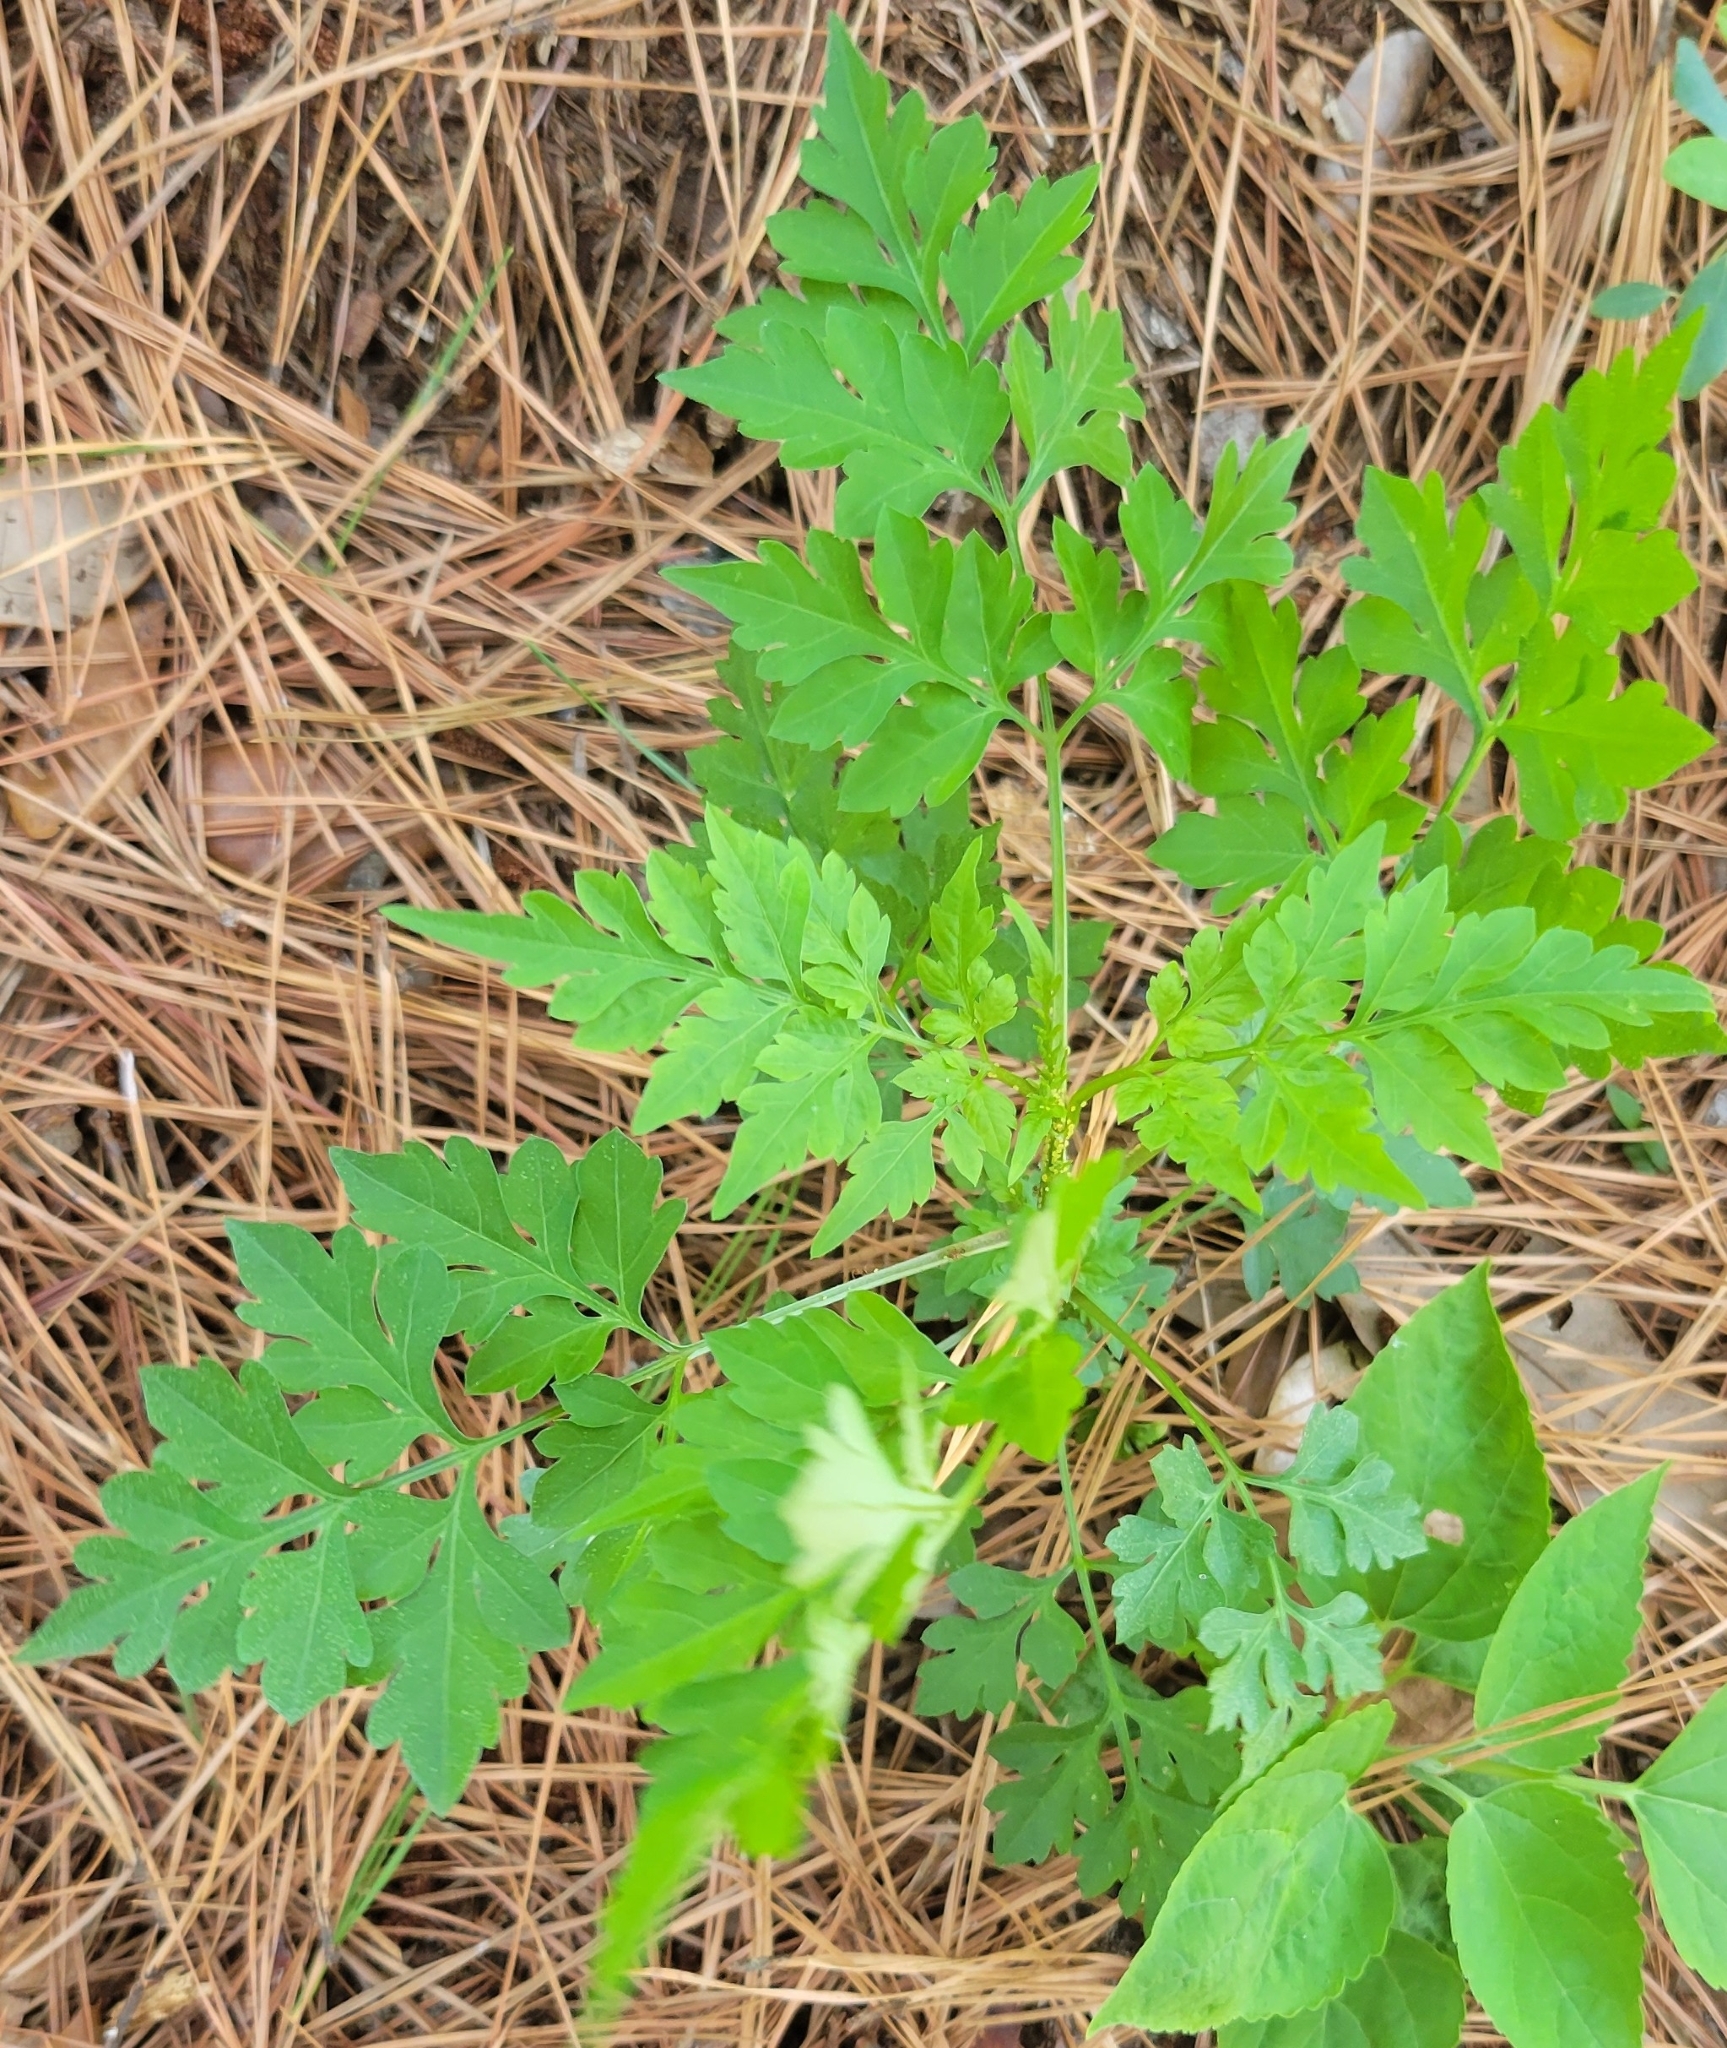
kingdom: Plantae
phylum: Tracheophyta
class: Magnoliopsida
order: Asterales
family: Asteraceae
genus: Bidens
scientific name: Bidens bipinnata
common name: Spanish-needles
